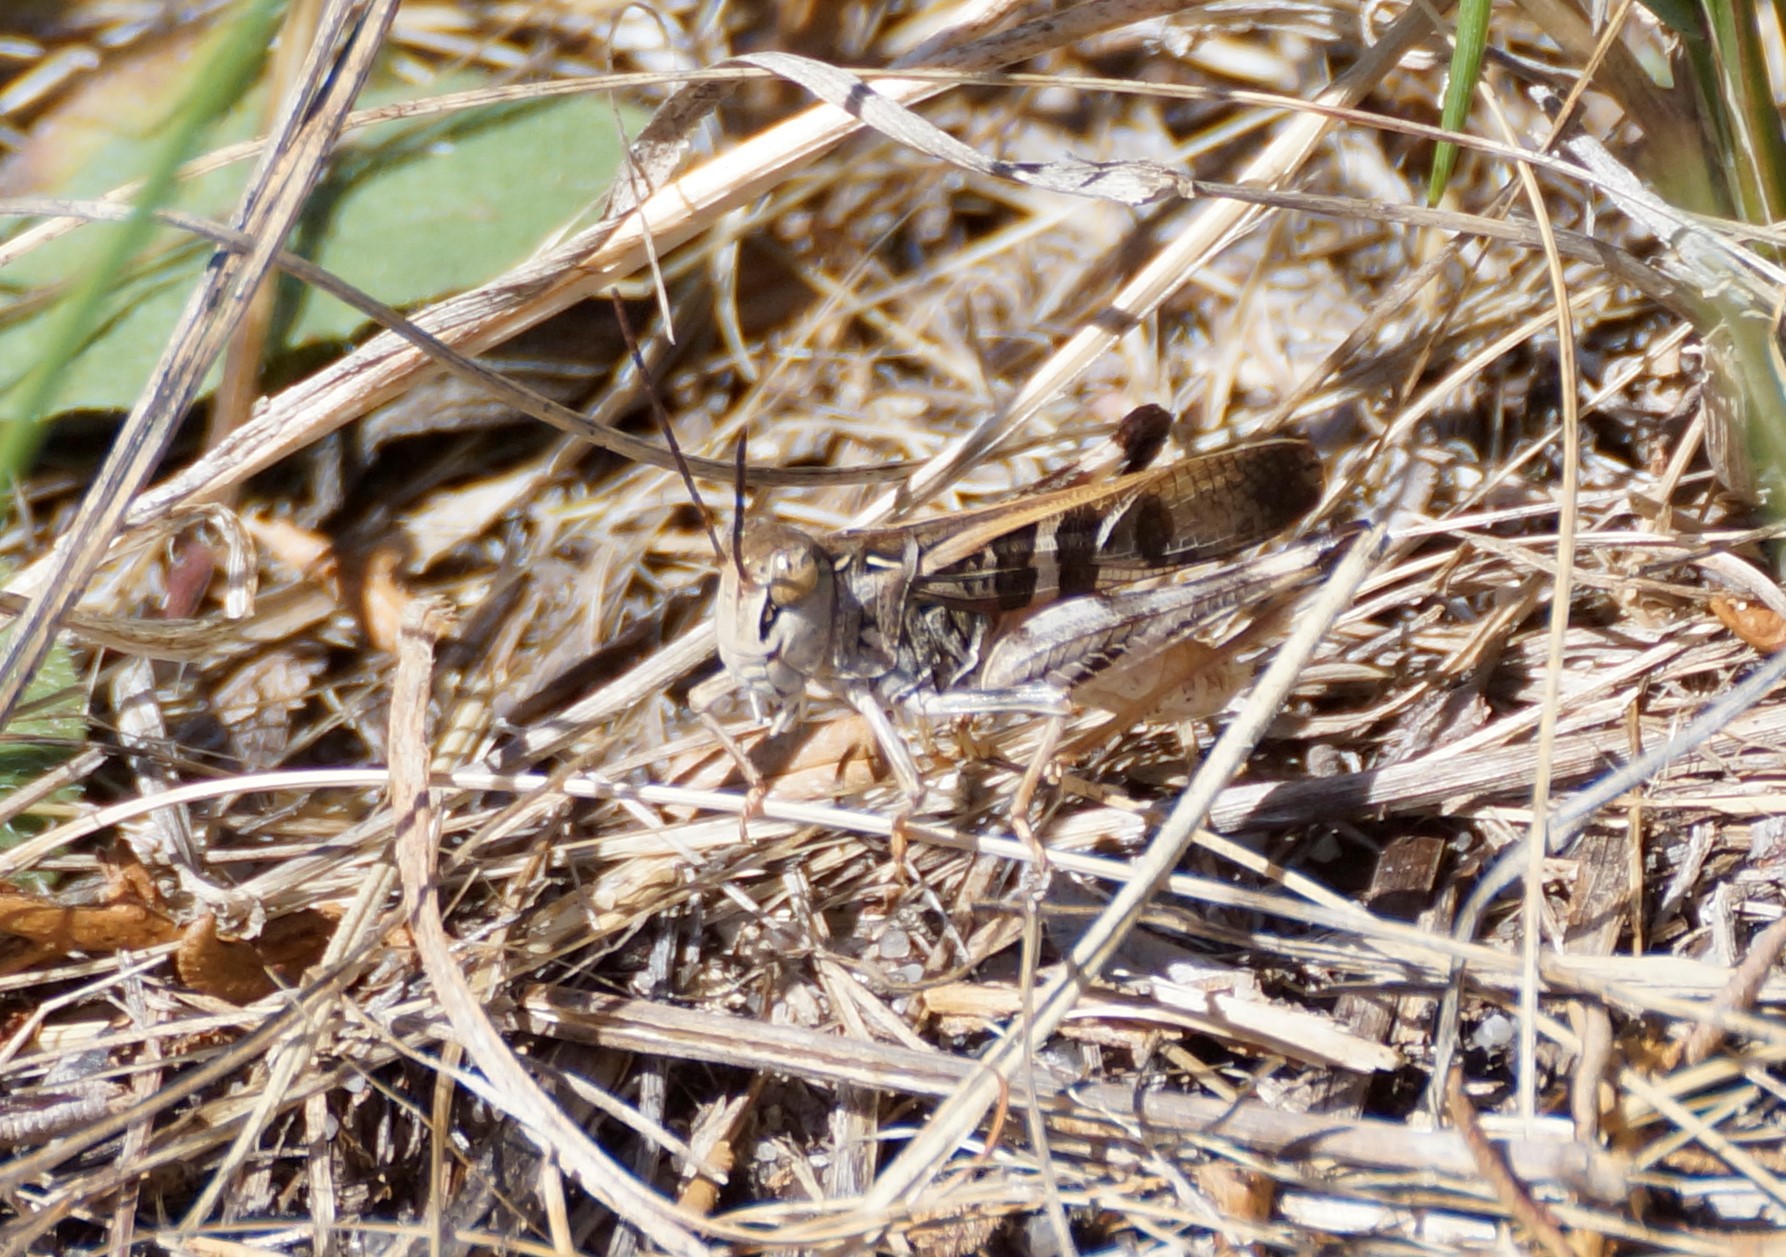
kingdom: Animalia
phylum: Arthropoda
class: Insecta
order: Orthoptera
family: Acrididae
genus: Oedaleus
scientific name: Oedaleus australis
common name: Eastern oedaleus
